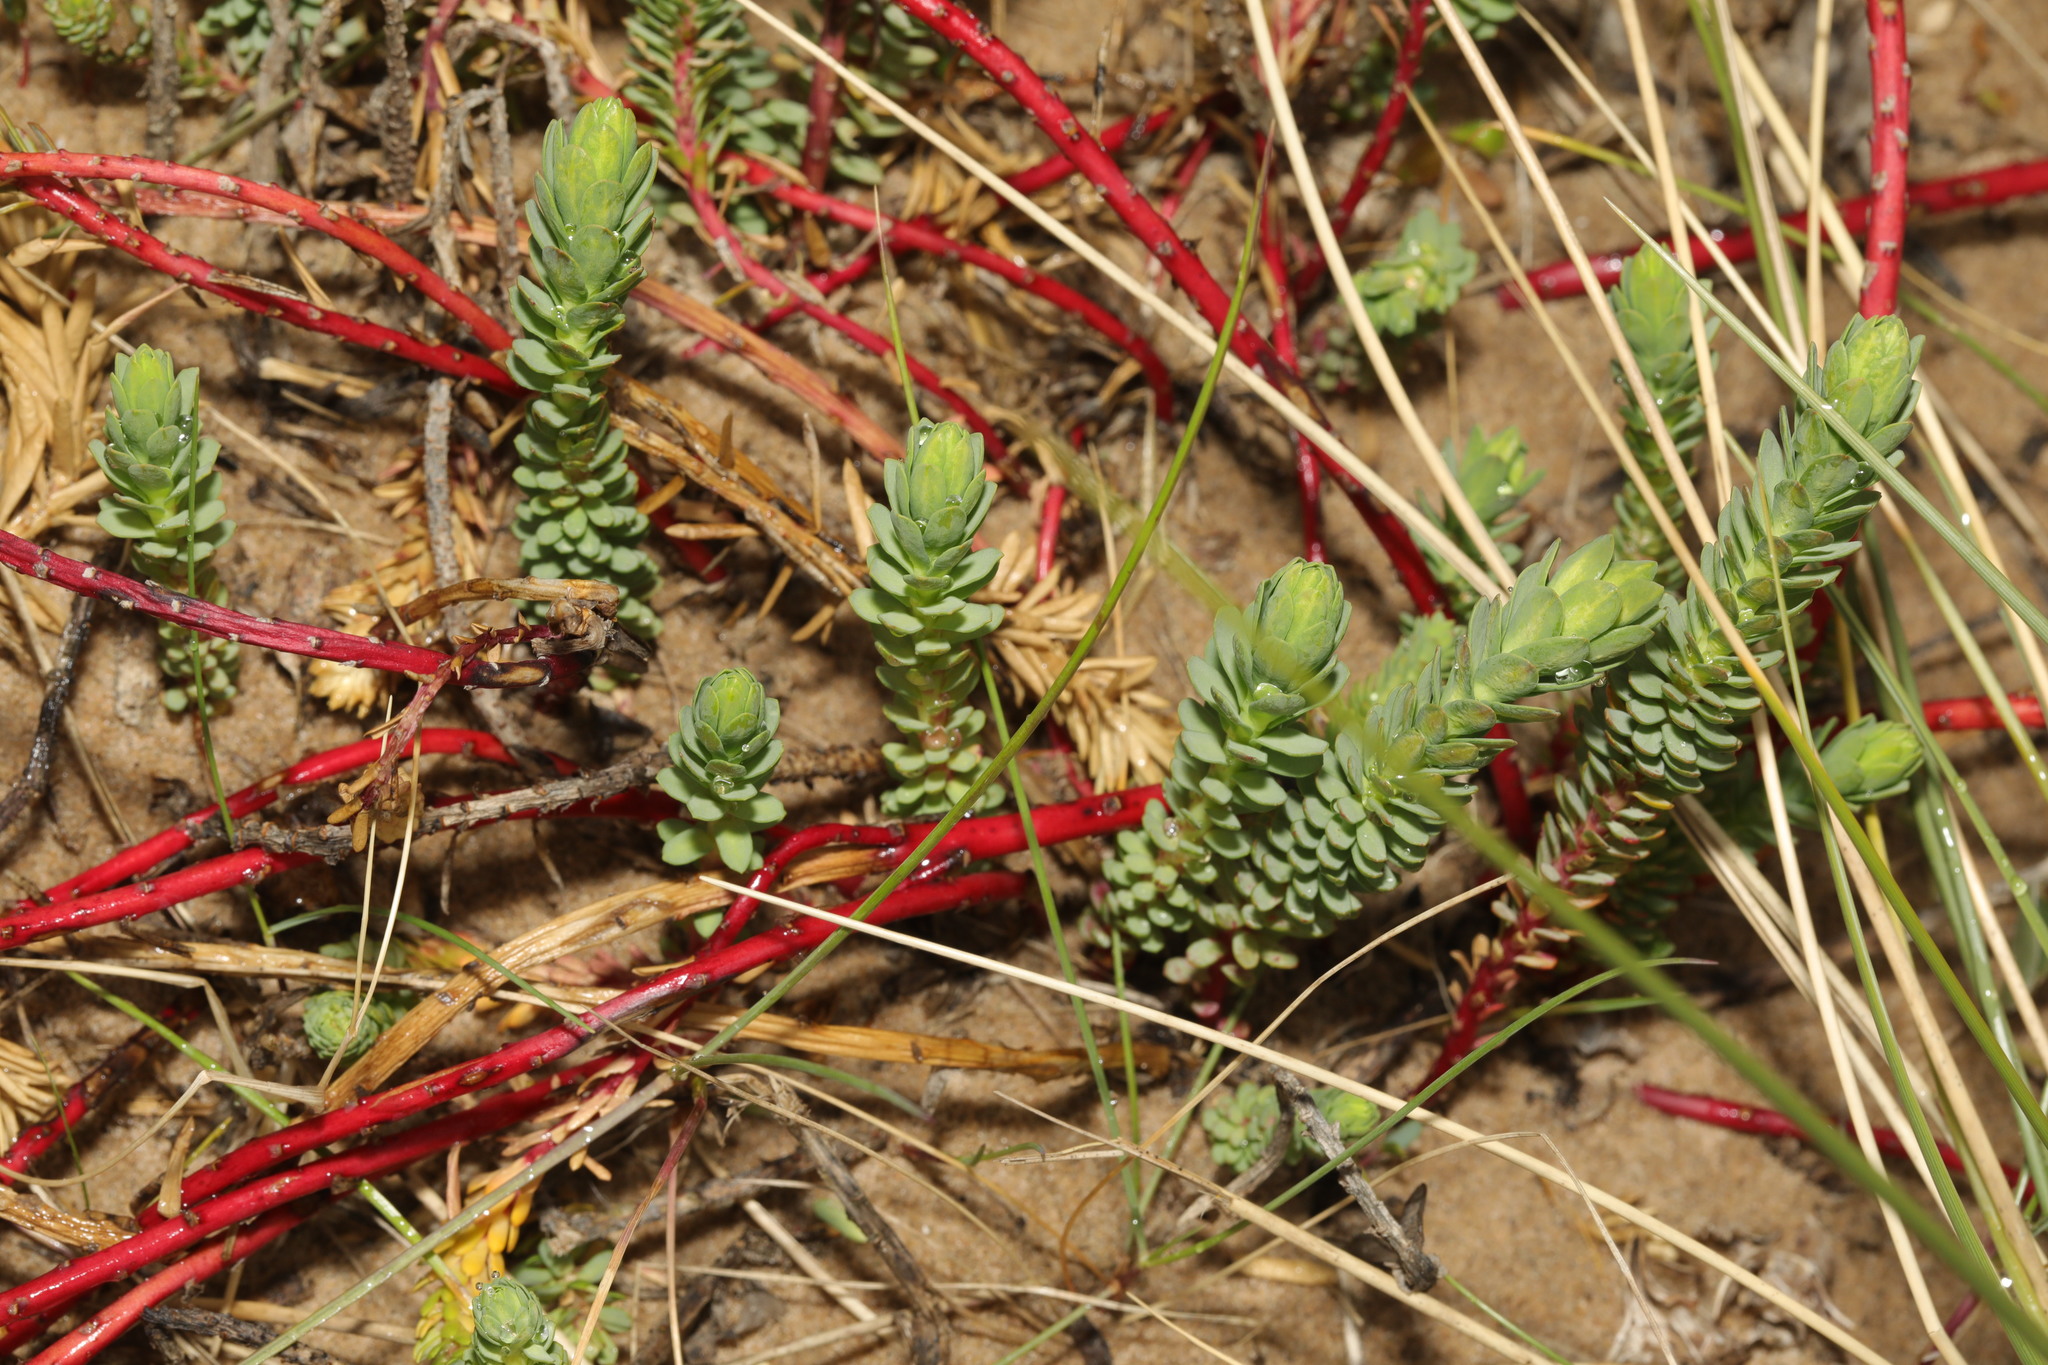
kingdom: Plantae
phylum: Tracheophyta
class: Magnoliopsida
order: Malpighiales
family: Euphorbiaceae
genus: Euphorbia
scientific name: Euphorbia paralias
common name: Sea spurge
